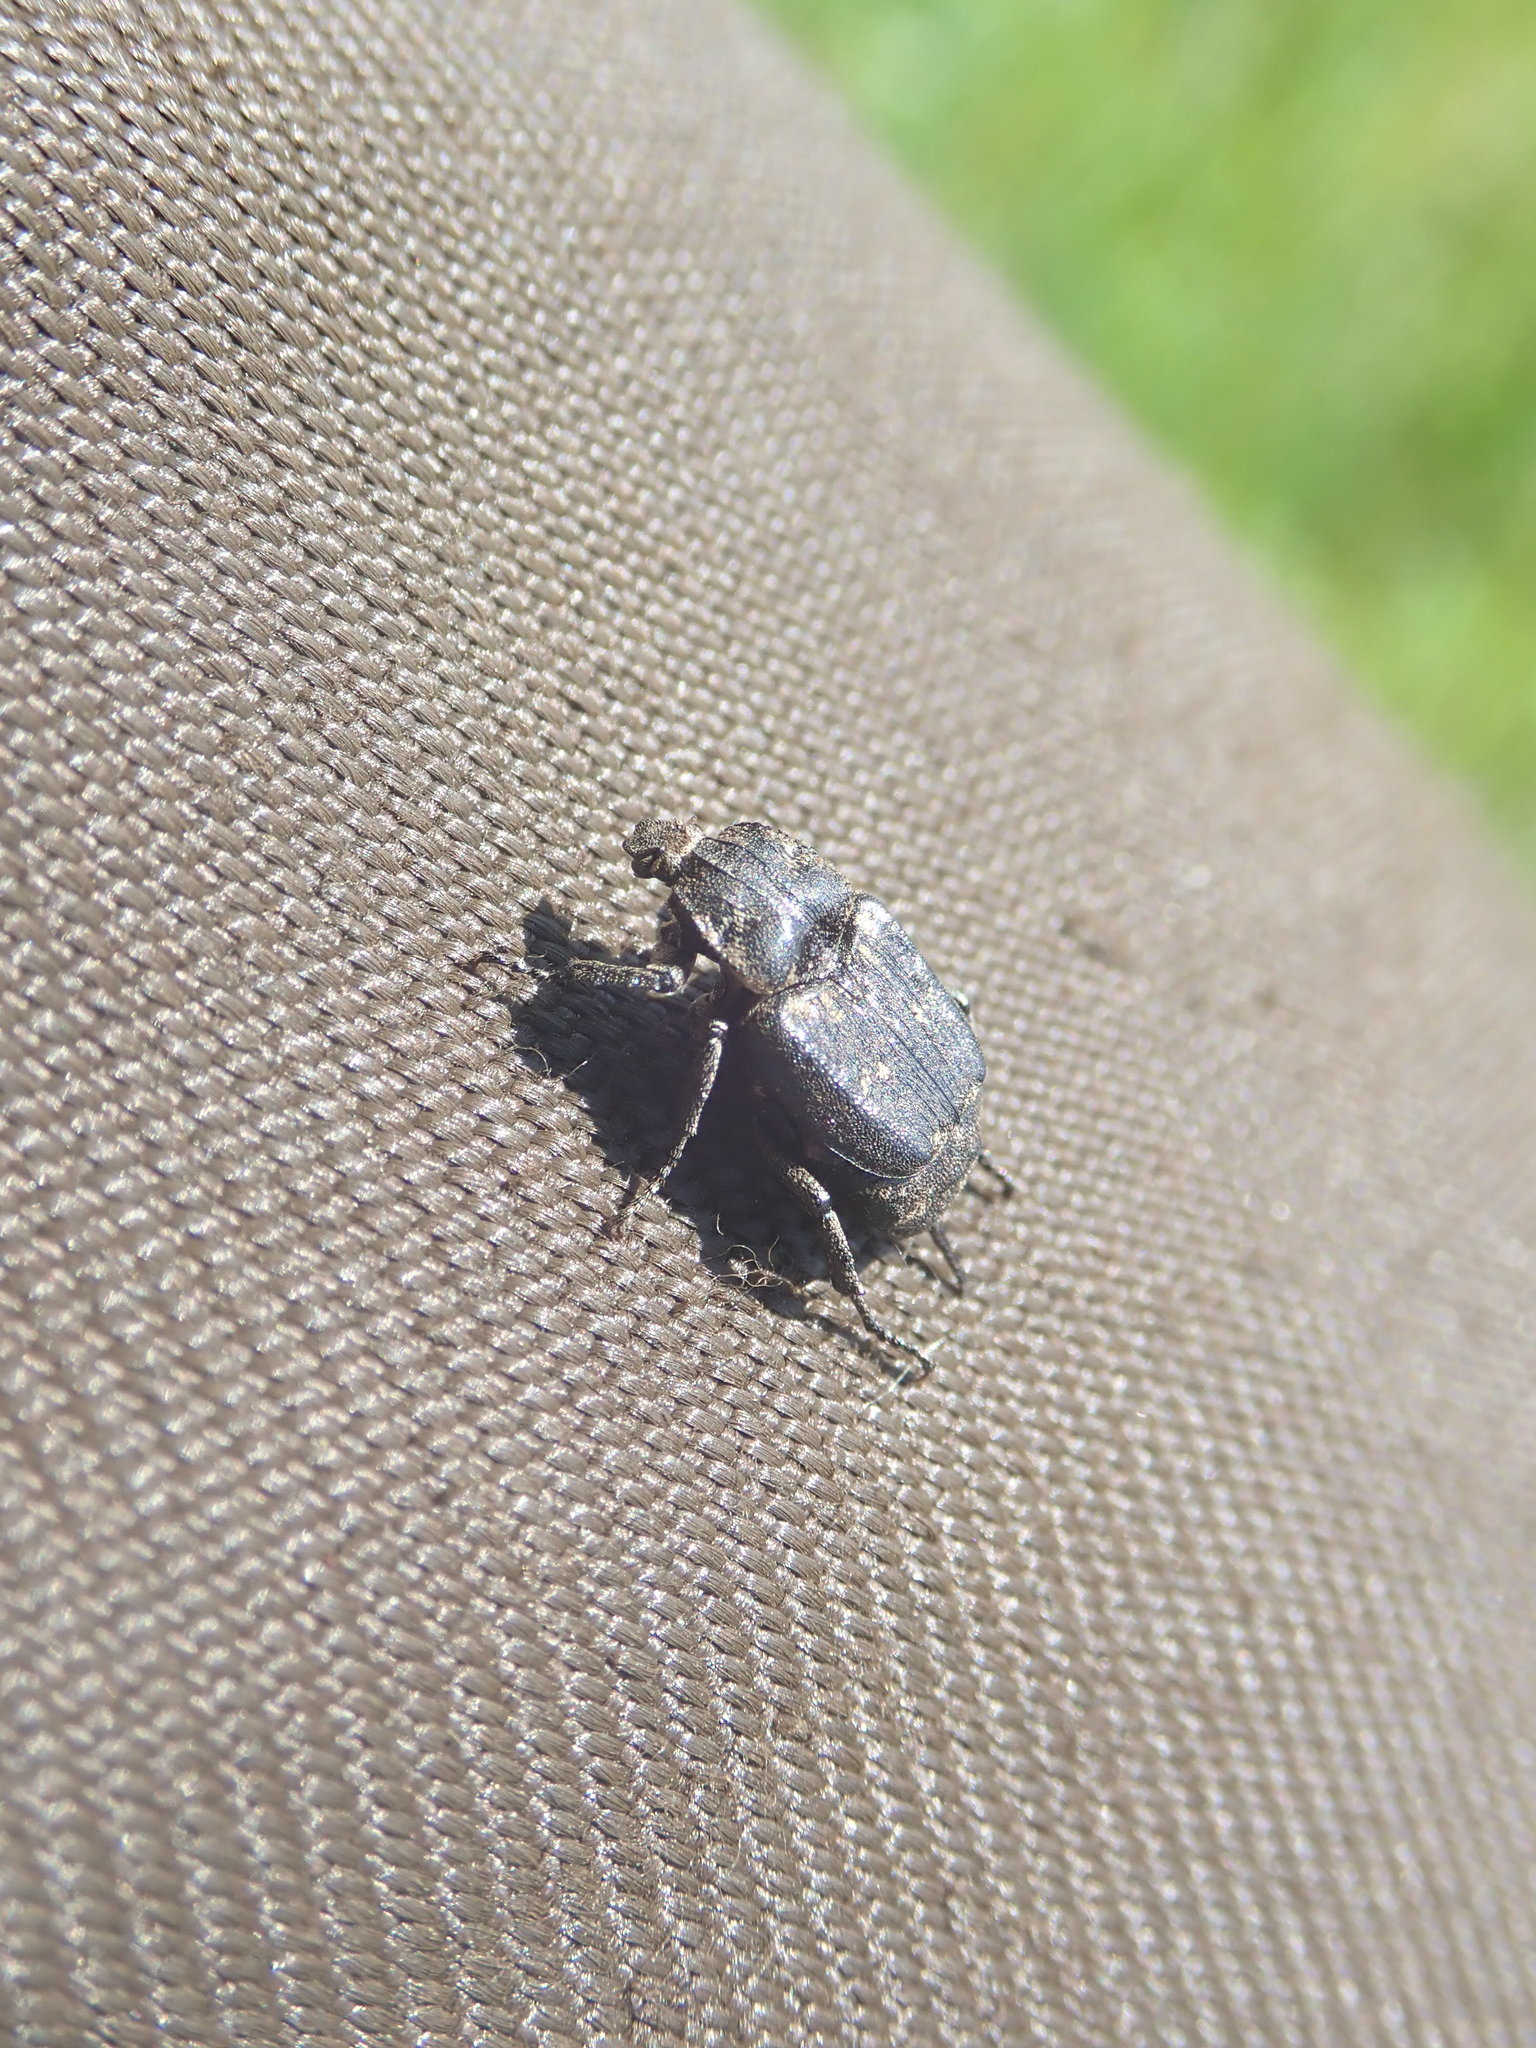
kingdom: Animalia
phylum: Arthropoda
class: Insecta
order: Coleoptera
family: Scarabaeidae
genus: Valgus
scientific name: Valgus hemipterus
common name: Bug flower chafer
